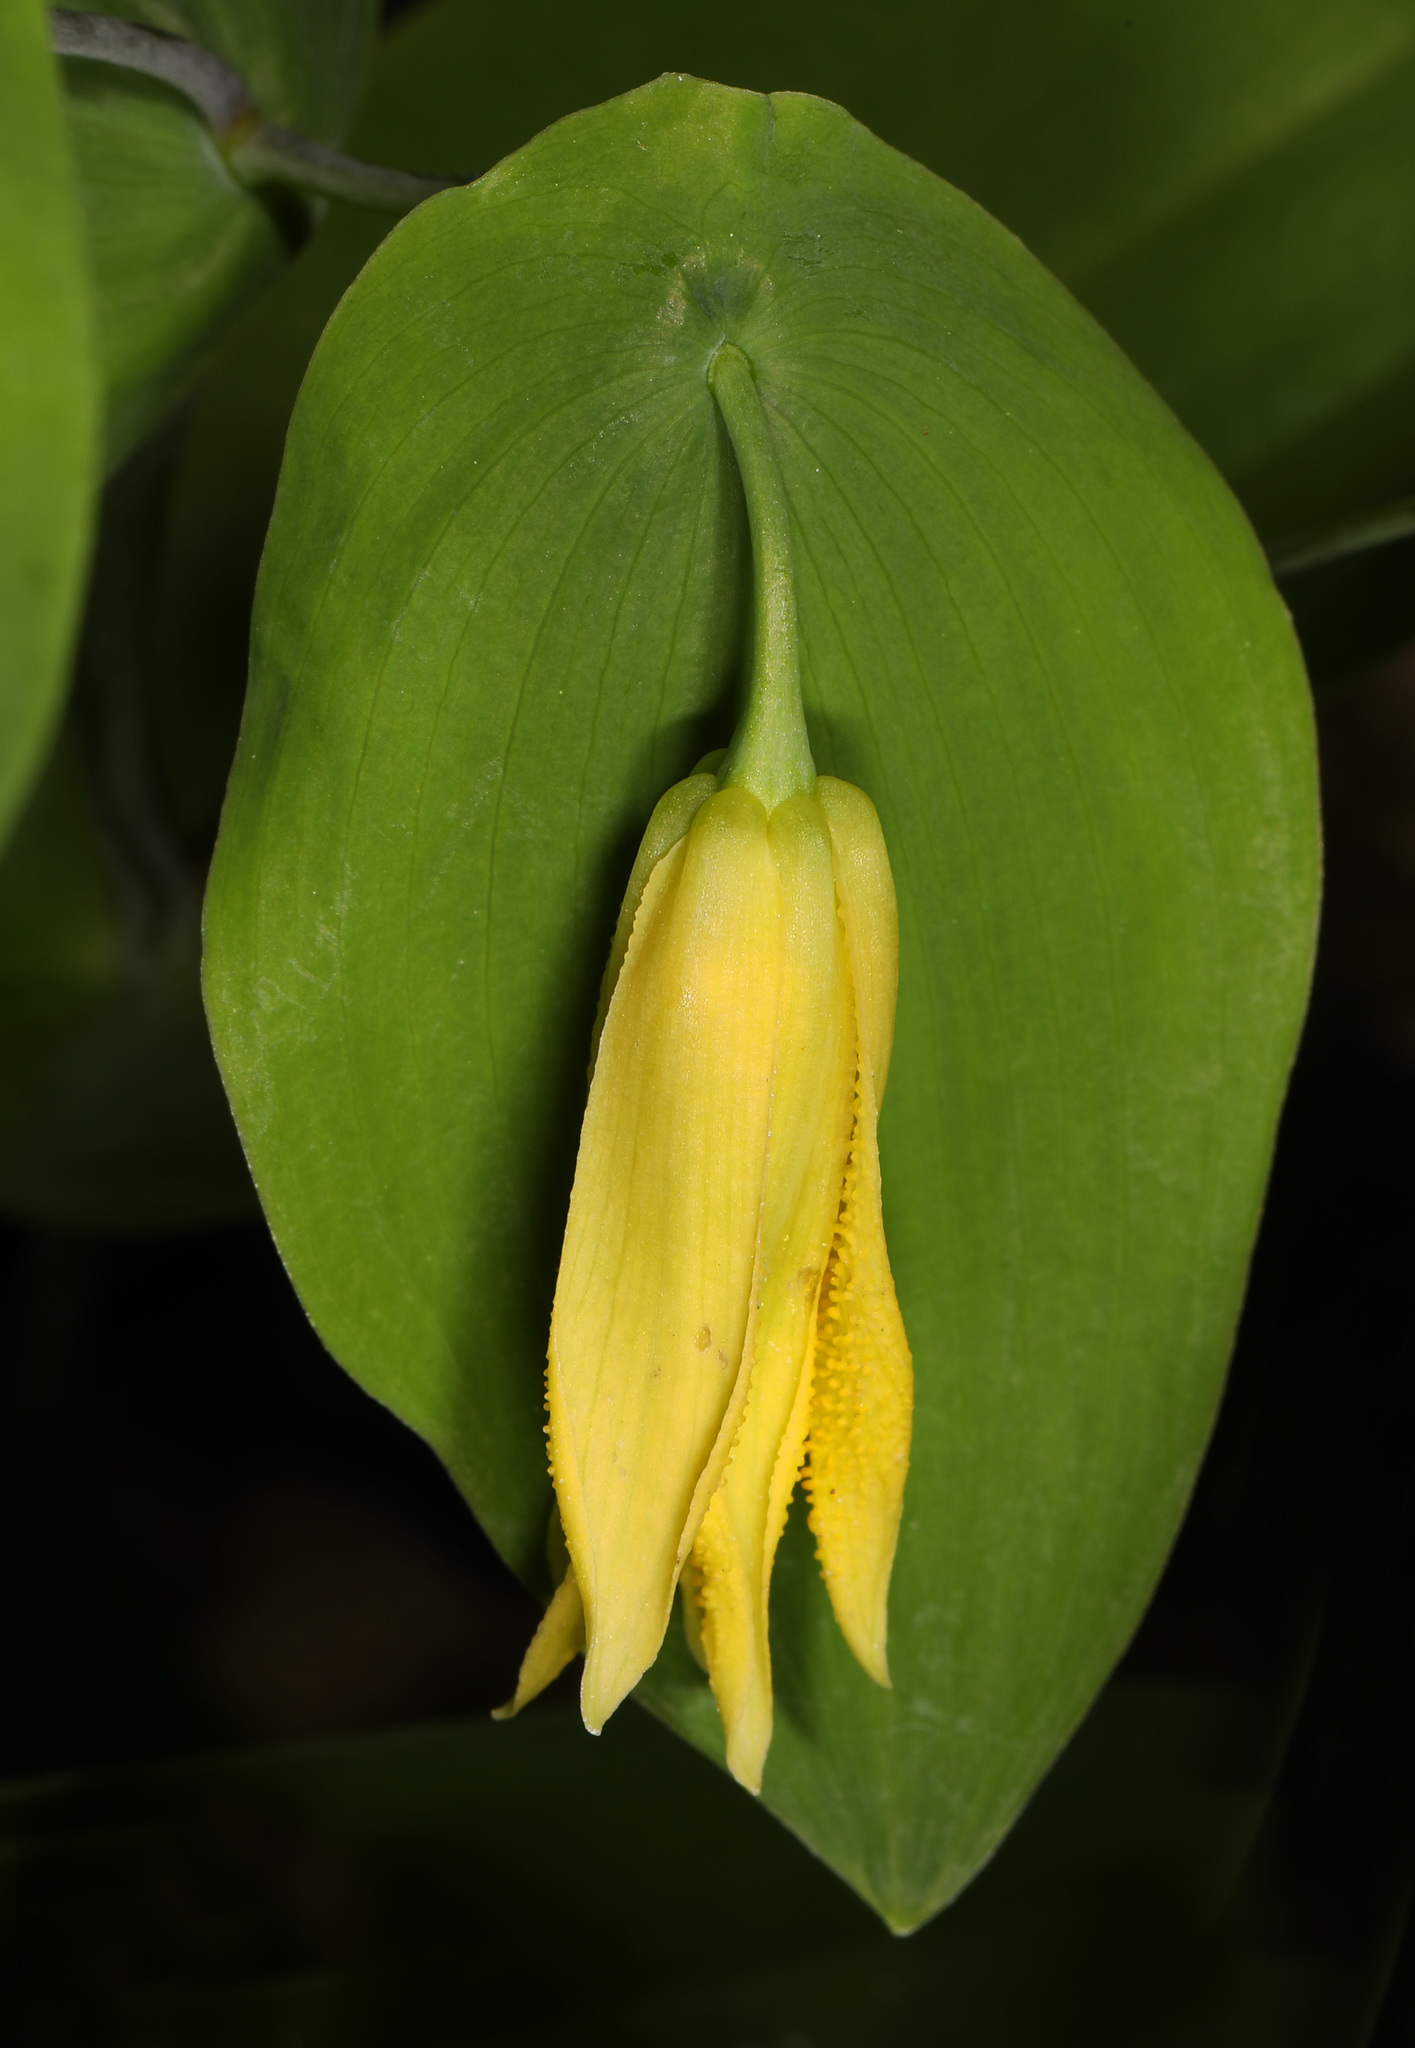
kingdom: Plantae
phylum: Tracheophyta
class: Liliopsida
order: Liliales
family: Colchicaceae
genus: Uvularia
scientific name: Uvularia perfoliata
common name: Perfoliate bellwort
